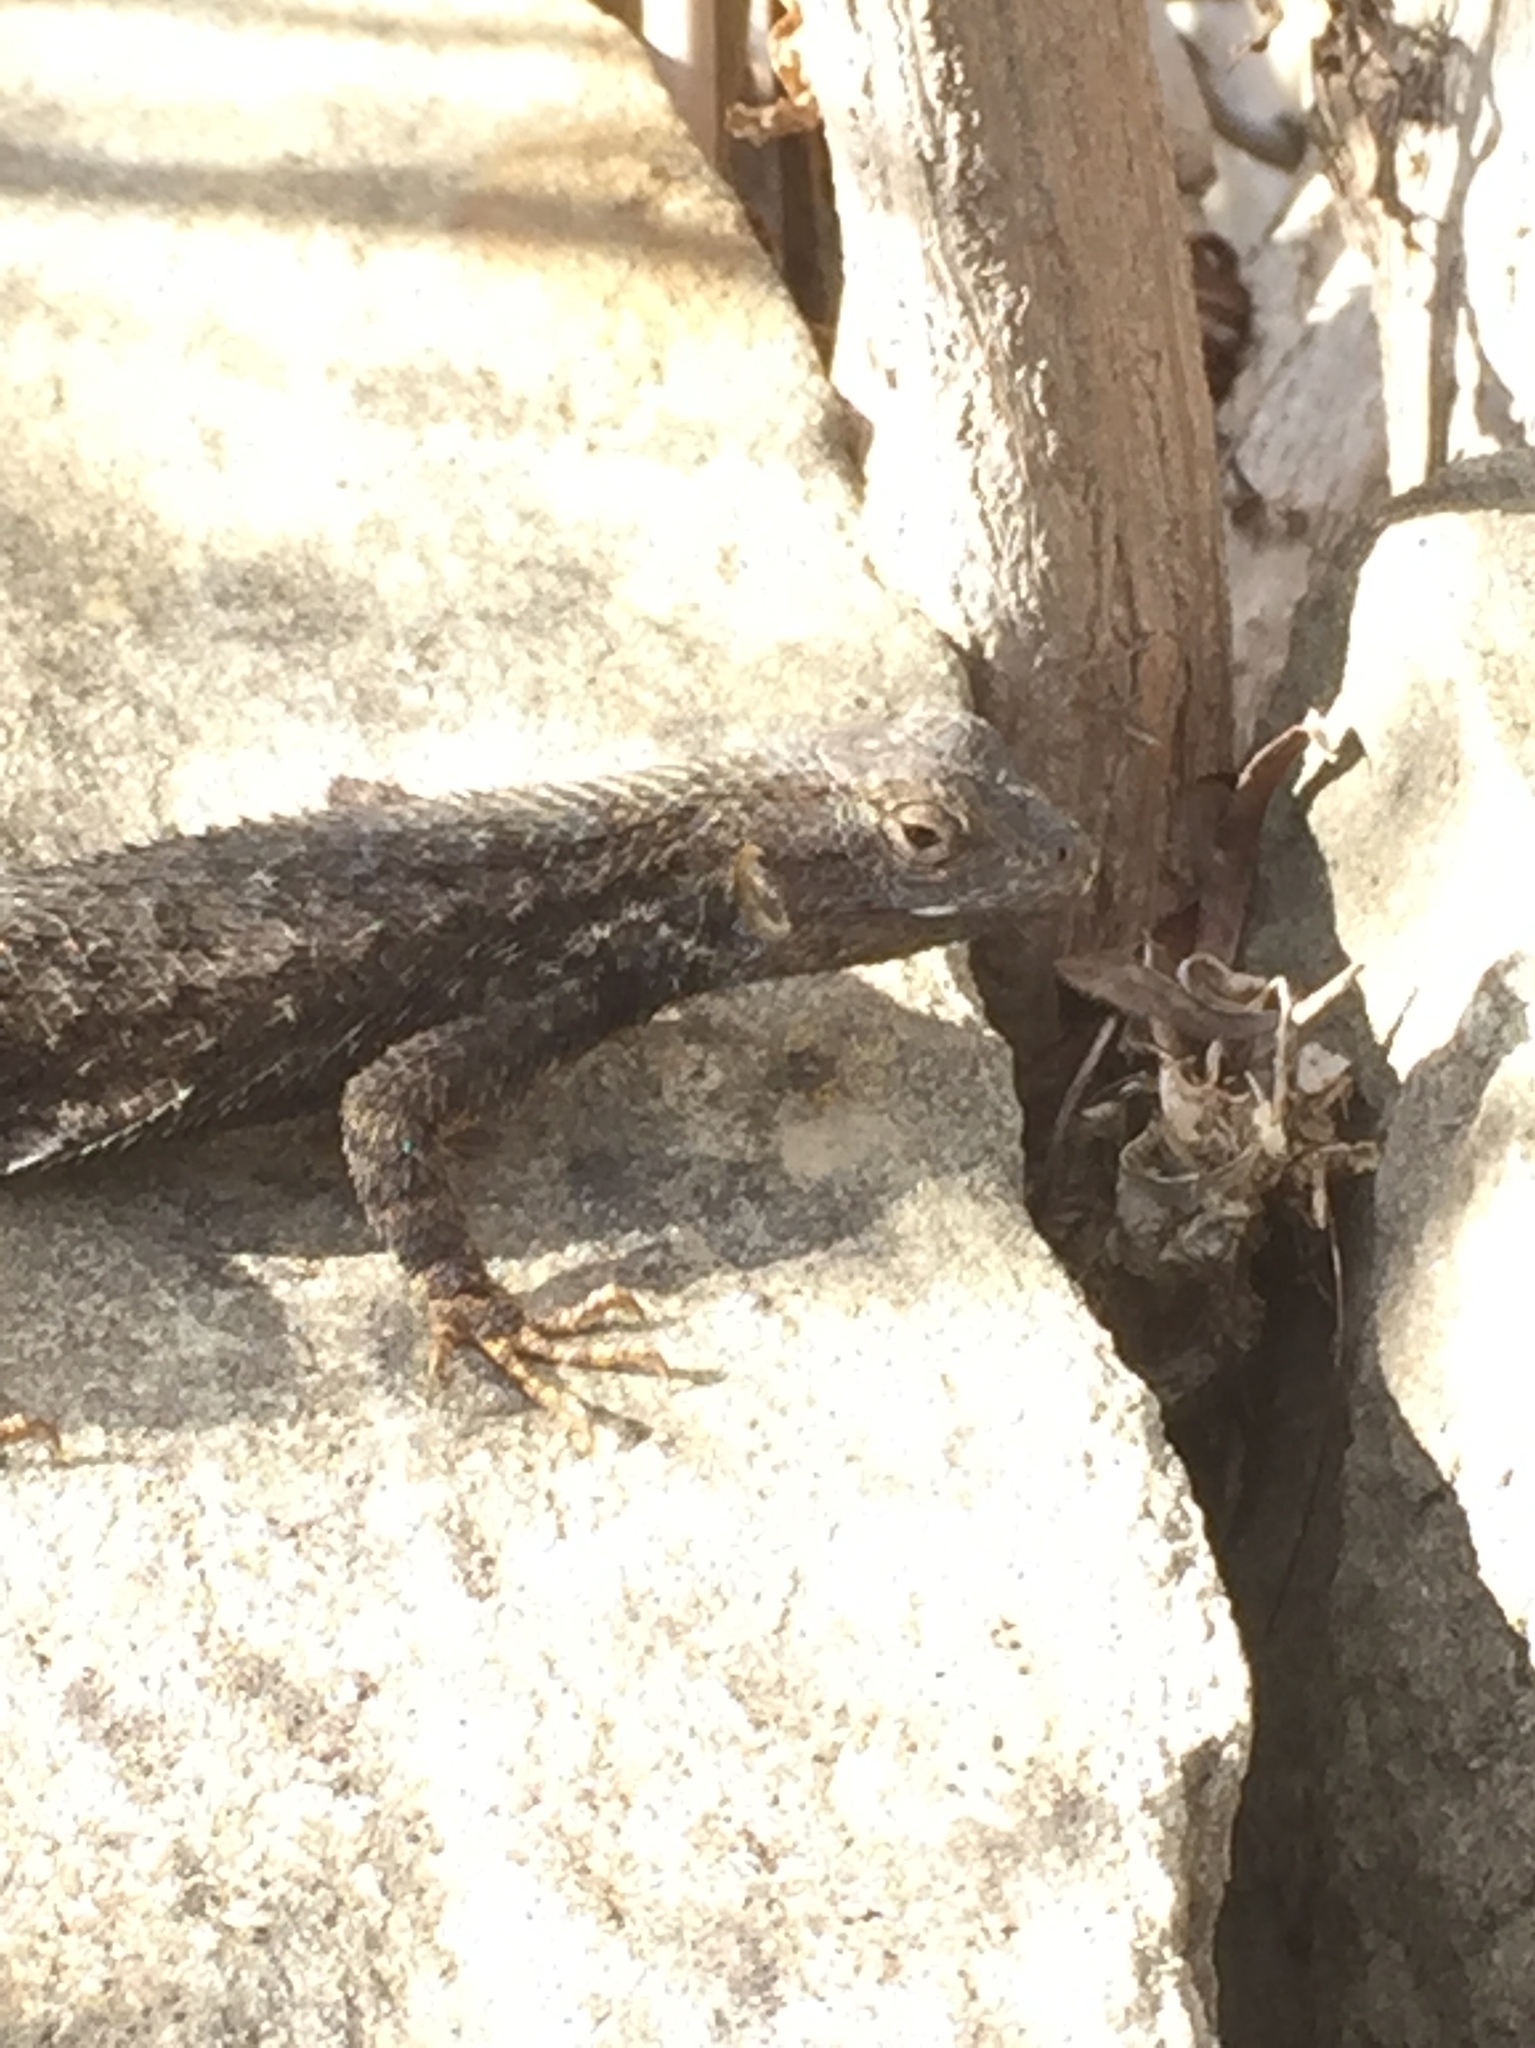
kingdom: Animalia
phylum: Chordata
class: Squamata
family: Phrynosomatidae
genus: Sceloporus
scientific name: Sceloporus occidentalis
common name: Western fence lizard
